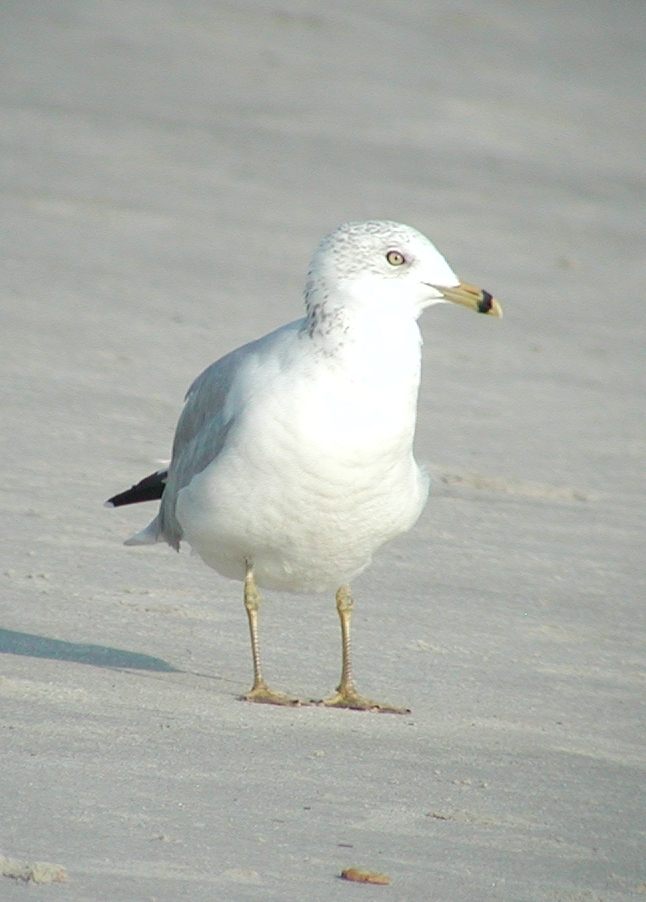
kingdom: Animalia
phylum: Chordata
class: Aves
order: Charadriiformes
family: Laridae
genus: Larus
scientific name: Larus delawarensis
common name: Ring-billed gull
